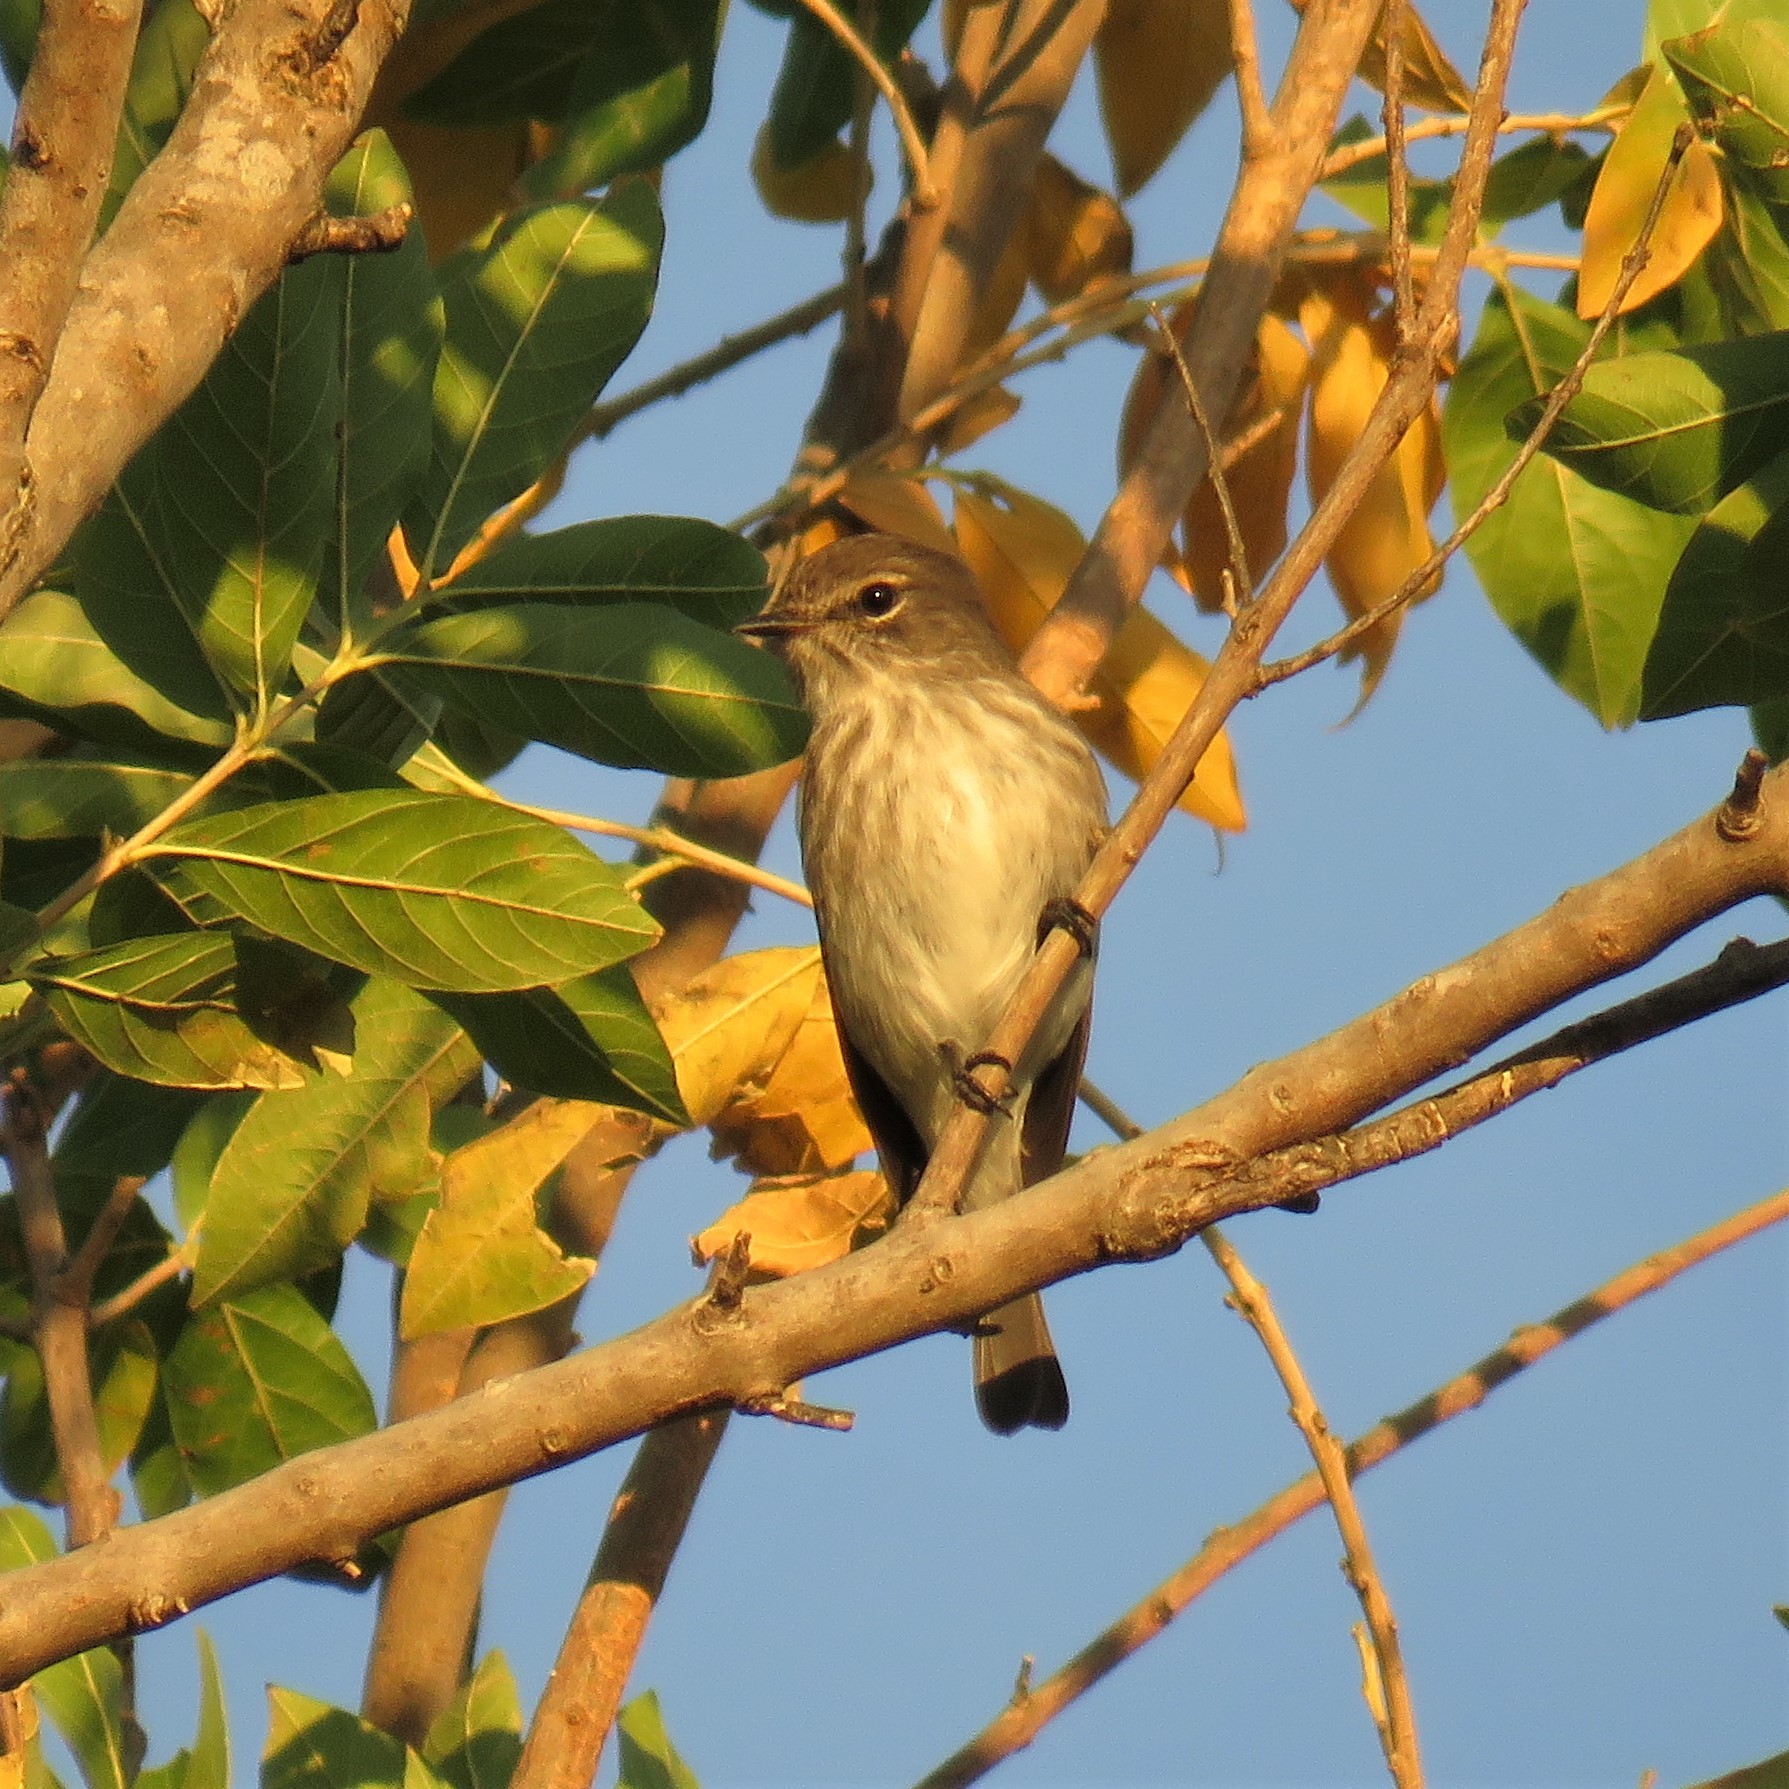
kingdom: Animalia
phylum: Chordata
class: Aves
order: Passeriformes
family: Muscicapidae
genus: Muscicapa
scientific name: Muscicapa adusta
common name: African dusky flycatcher
